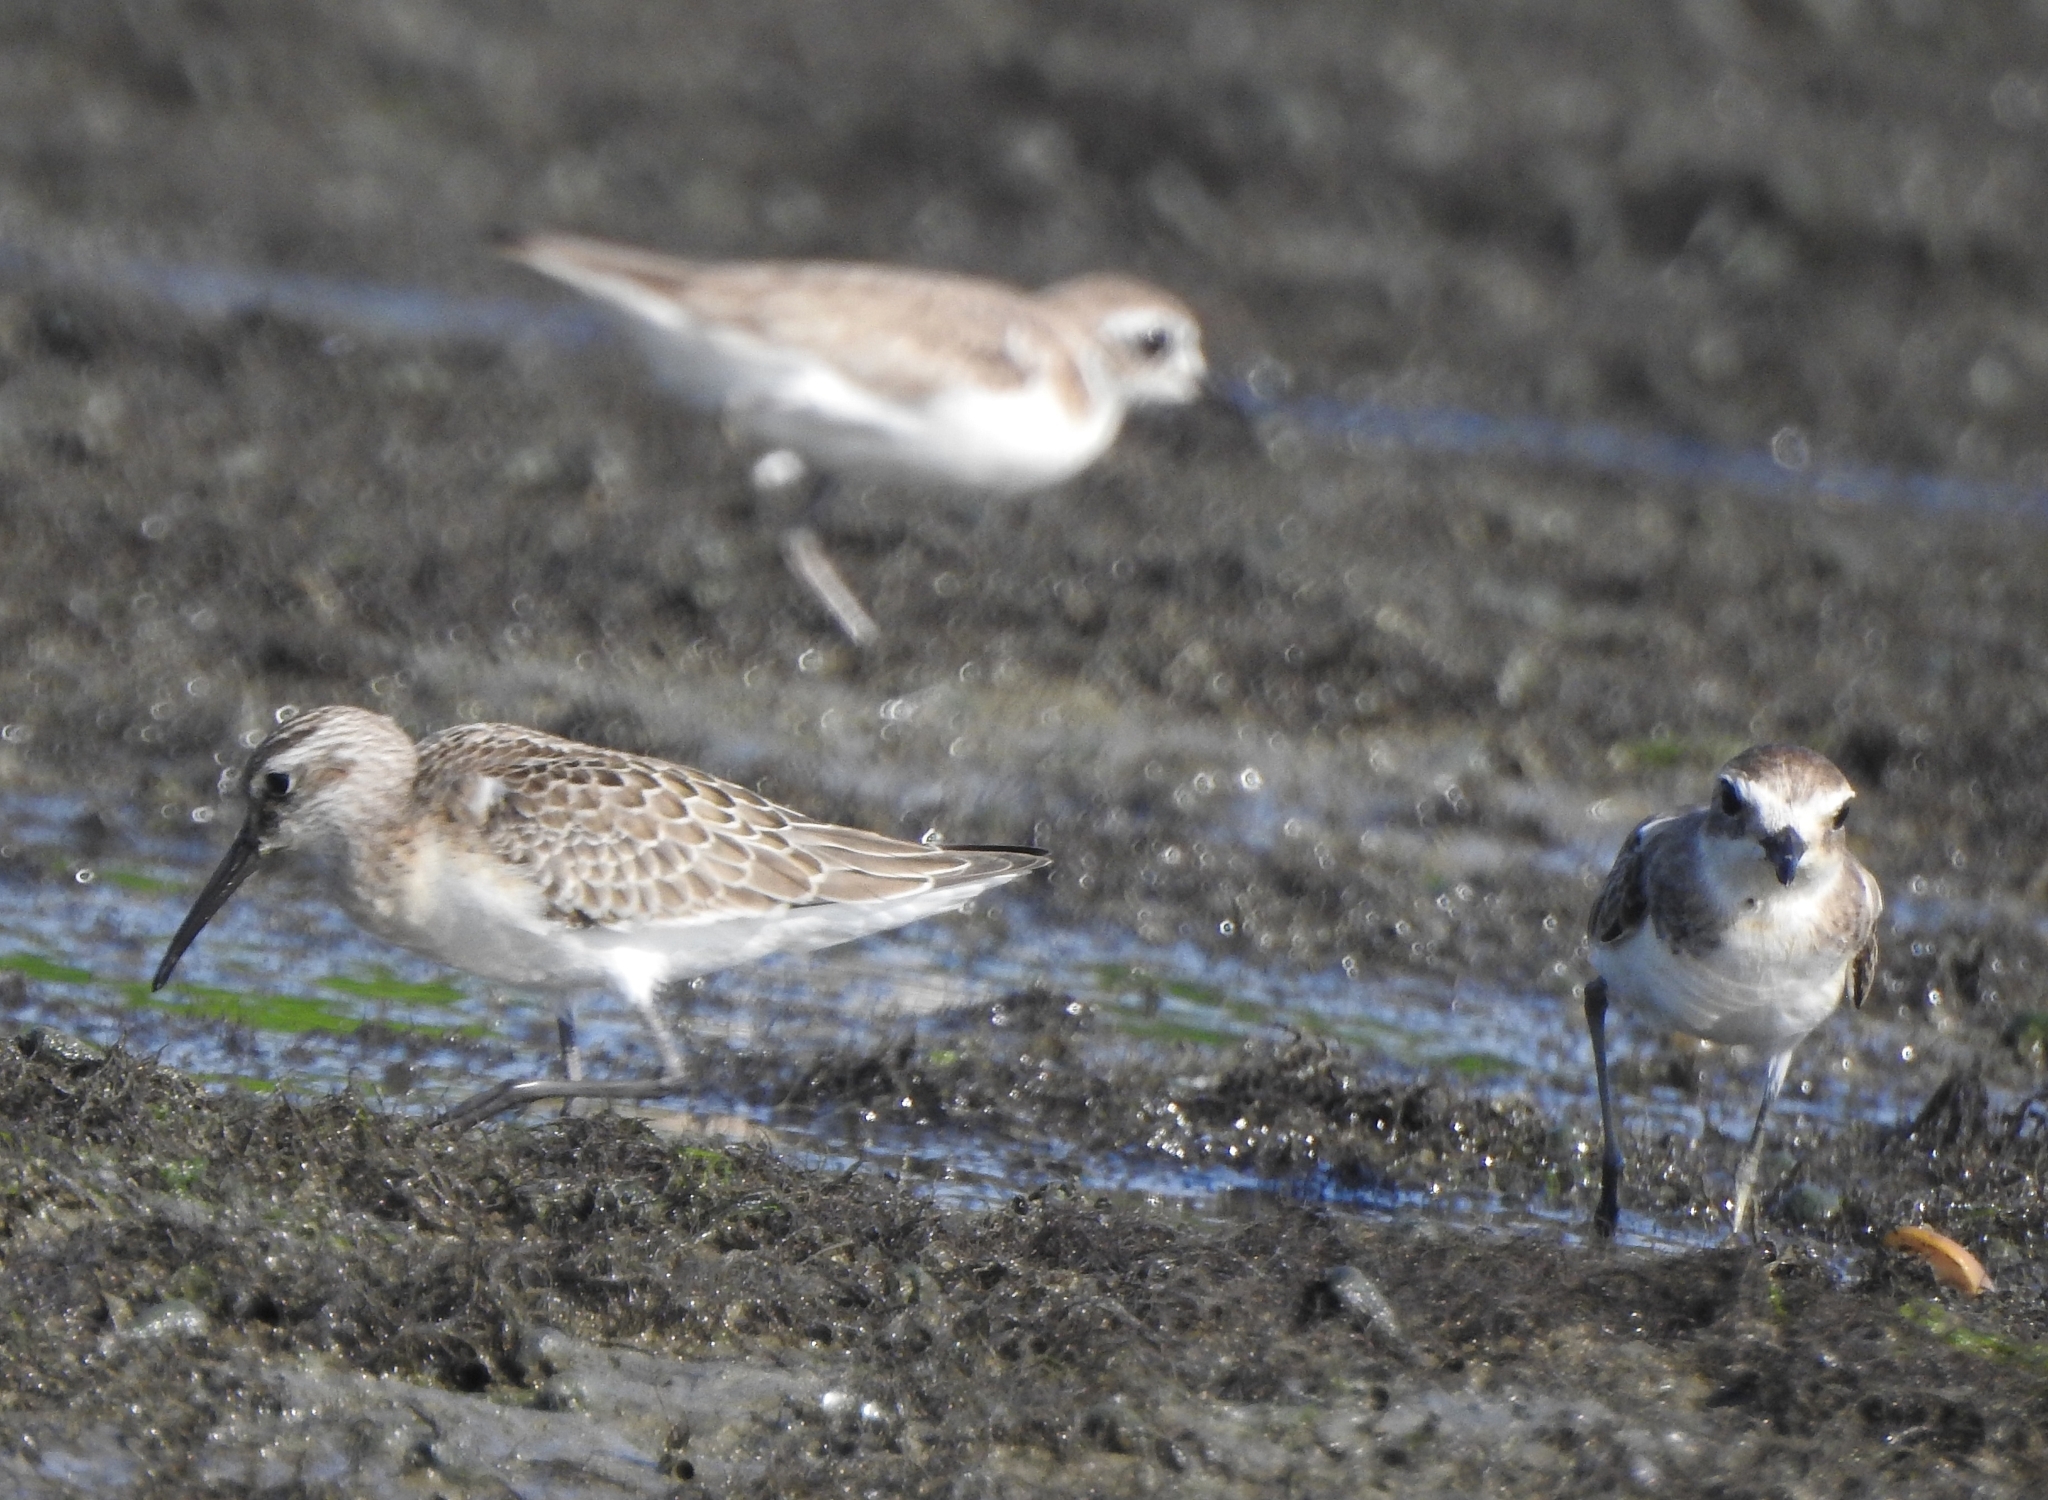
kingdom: Animalia
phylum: Chordata
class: Aves
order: Charadriiformes
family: Scolopacidae
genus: Calidris
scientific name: Calidris ferruginea
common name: Curlew sandpiper
